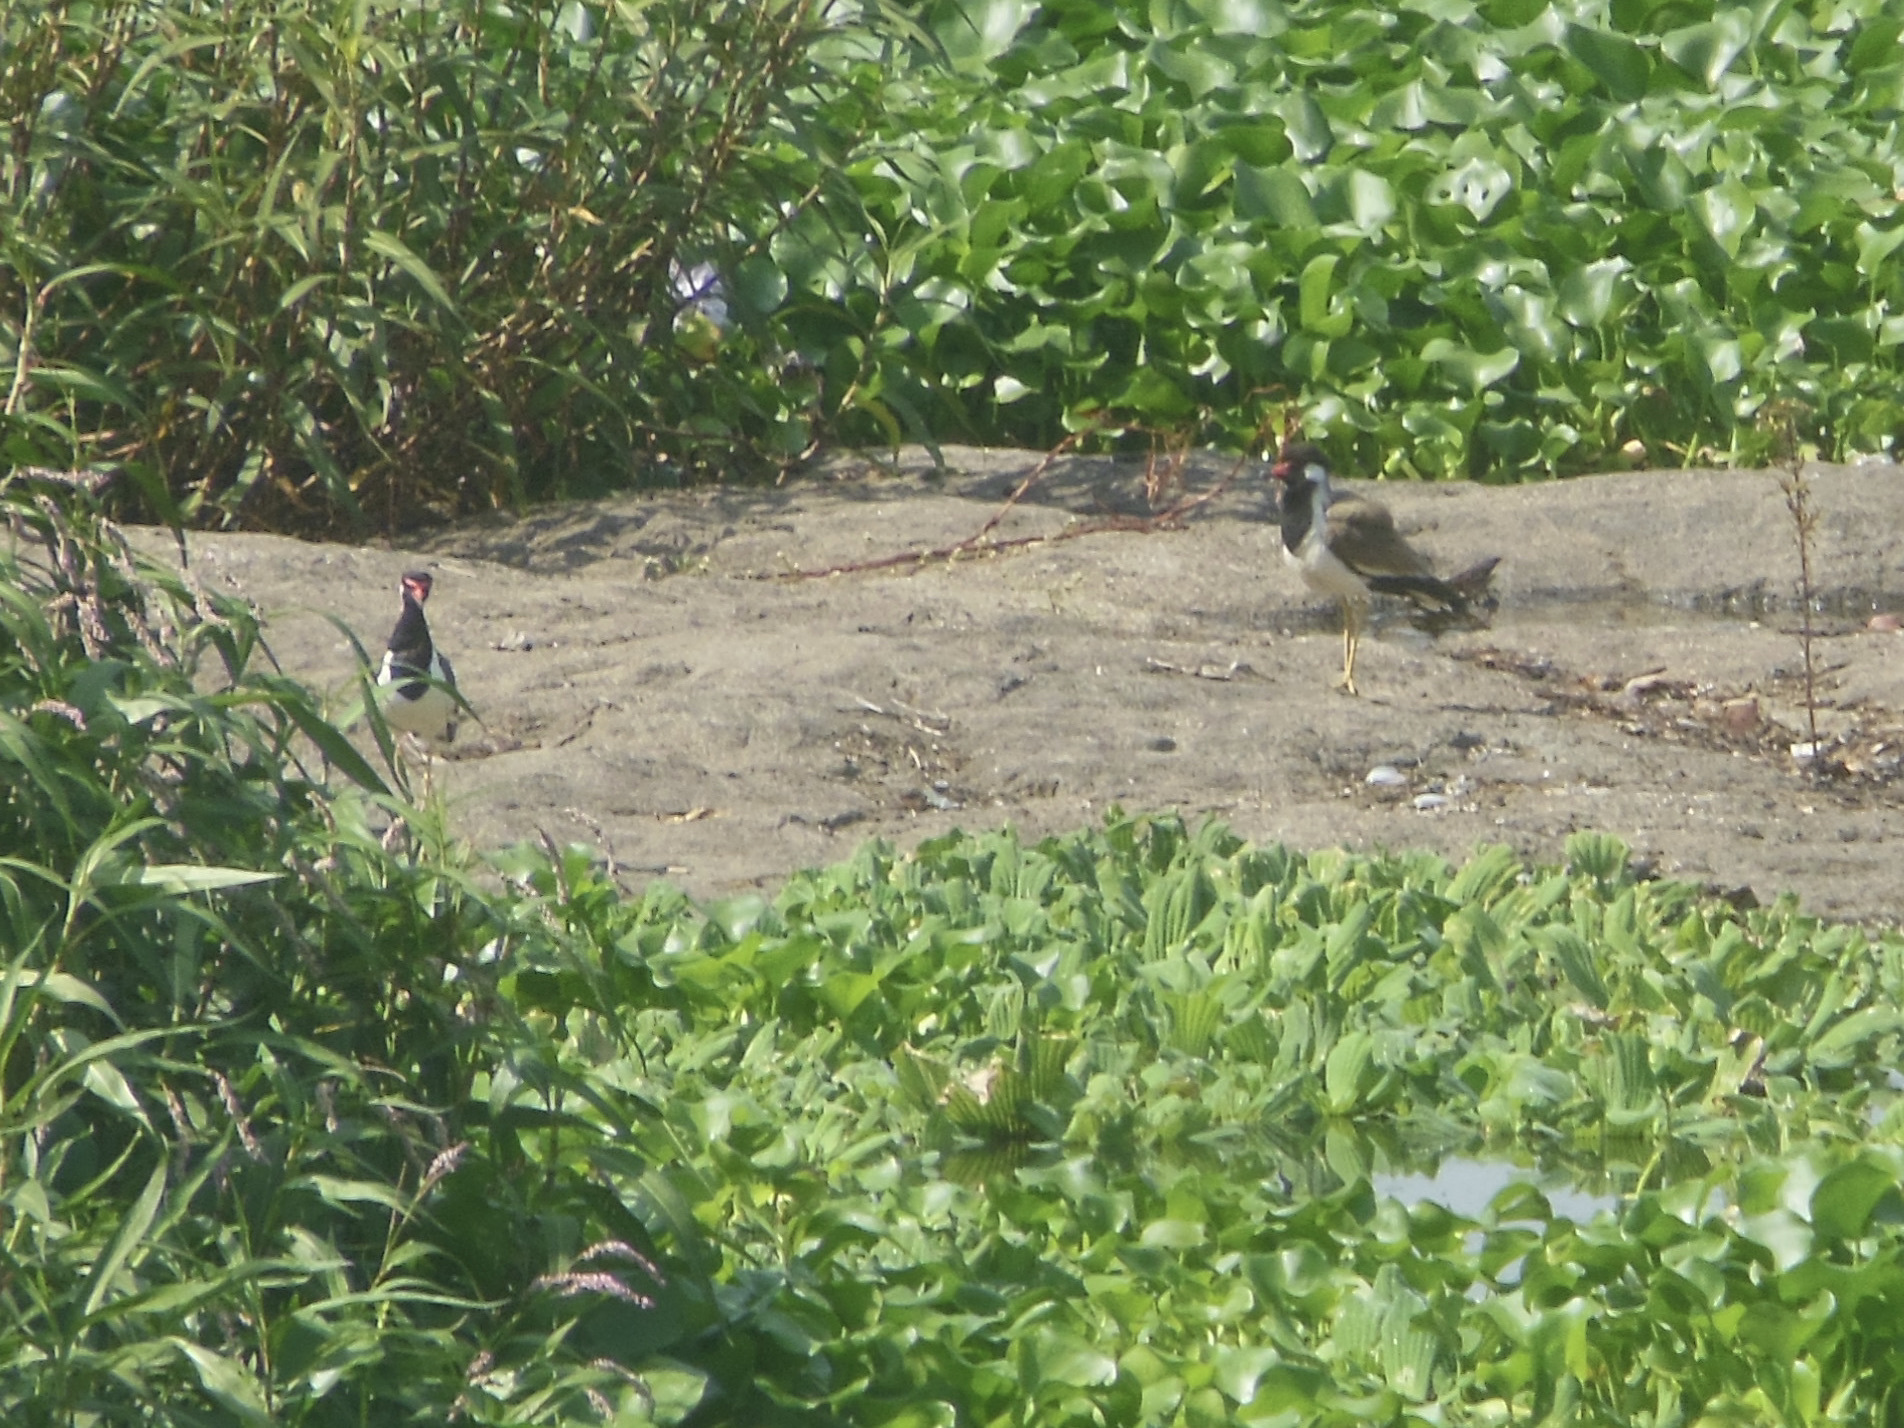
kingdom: Animalia
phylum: Chordata
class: Aves
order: Charadriiformes
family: Charadriidae
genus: Vanellus
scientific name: Vanellus indicus
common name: Red-wattled lapwing
